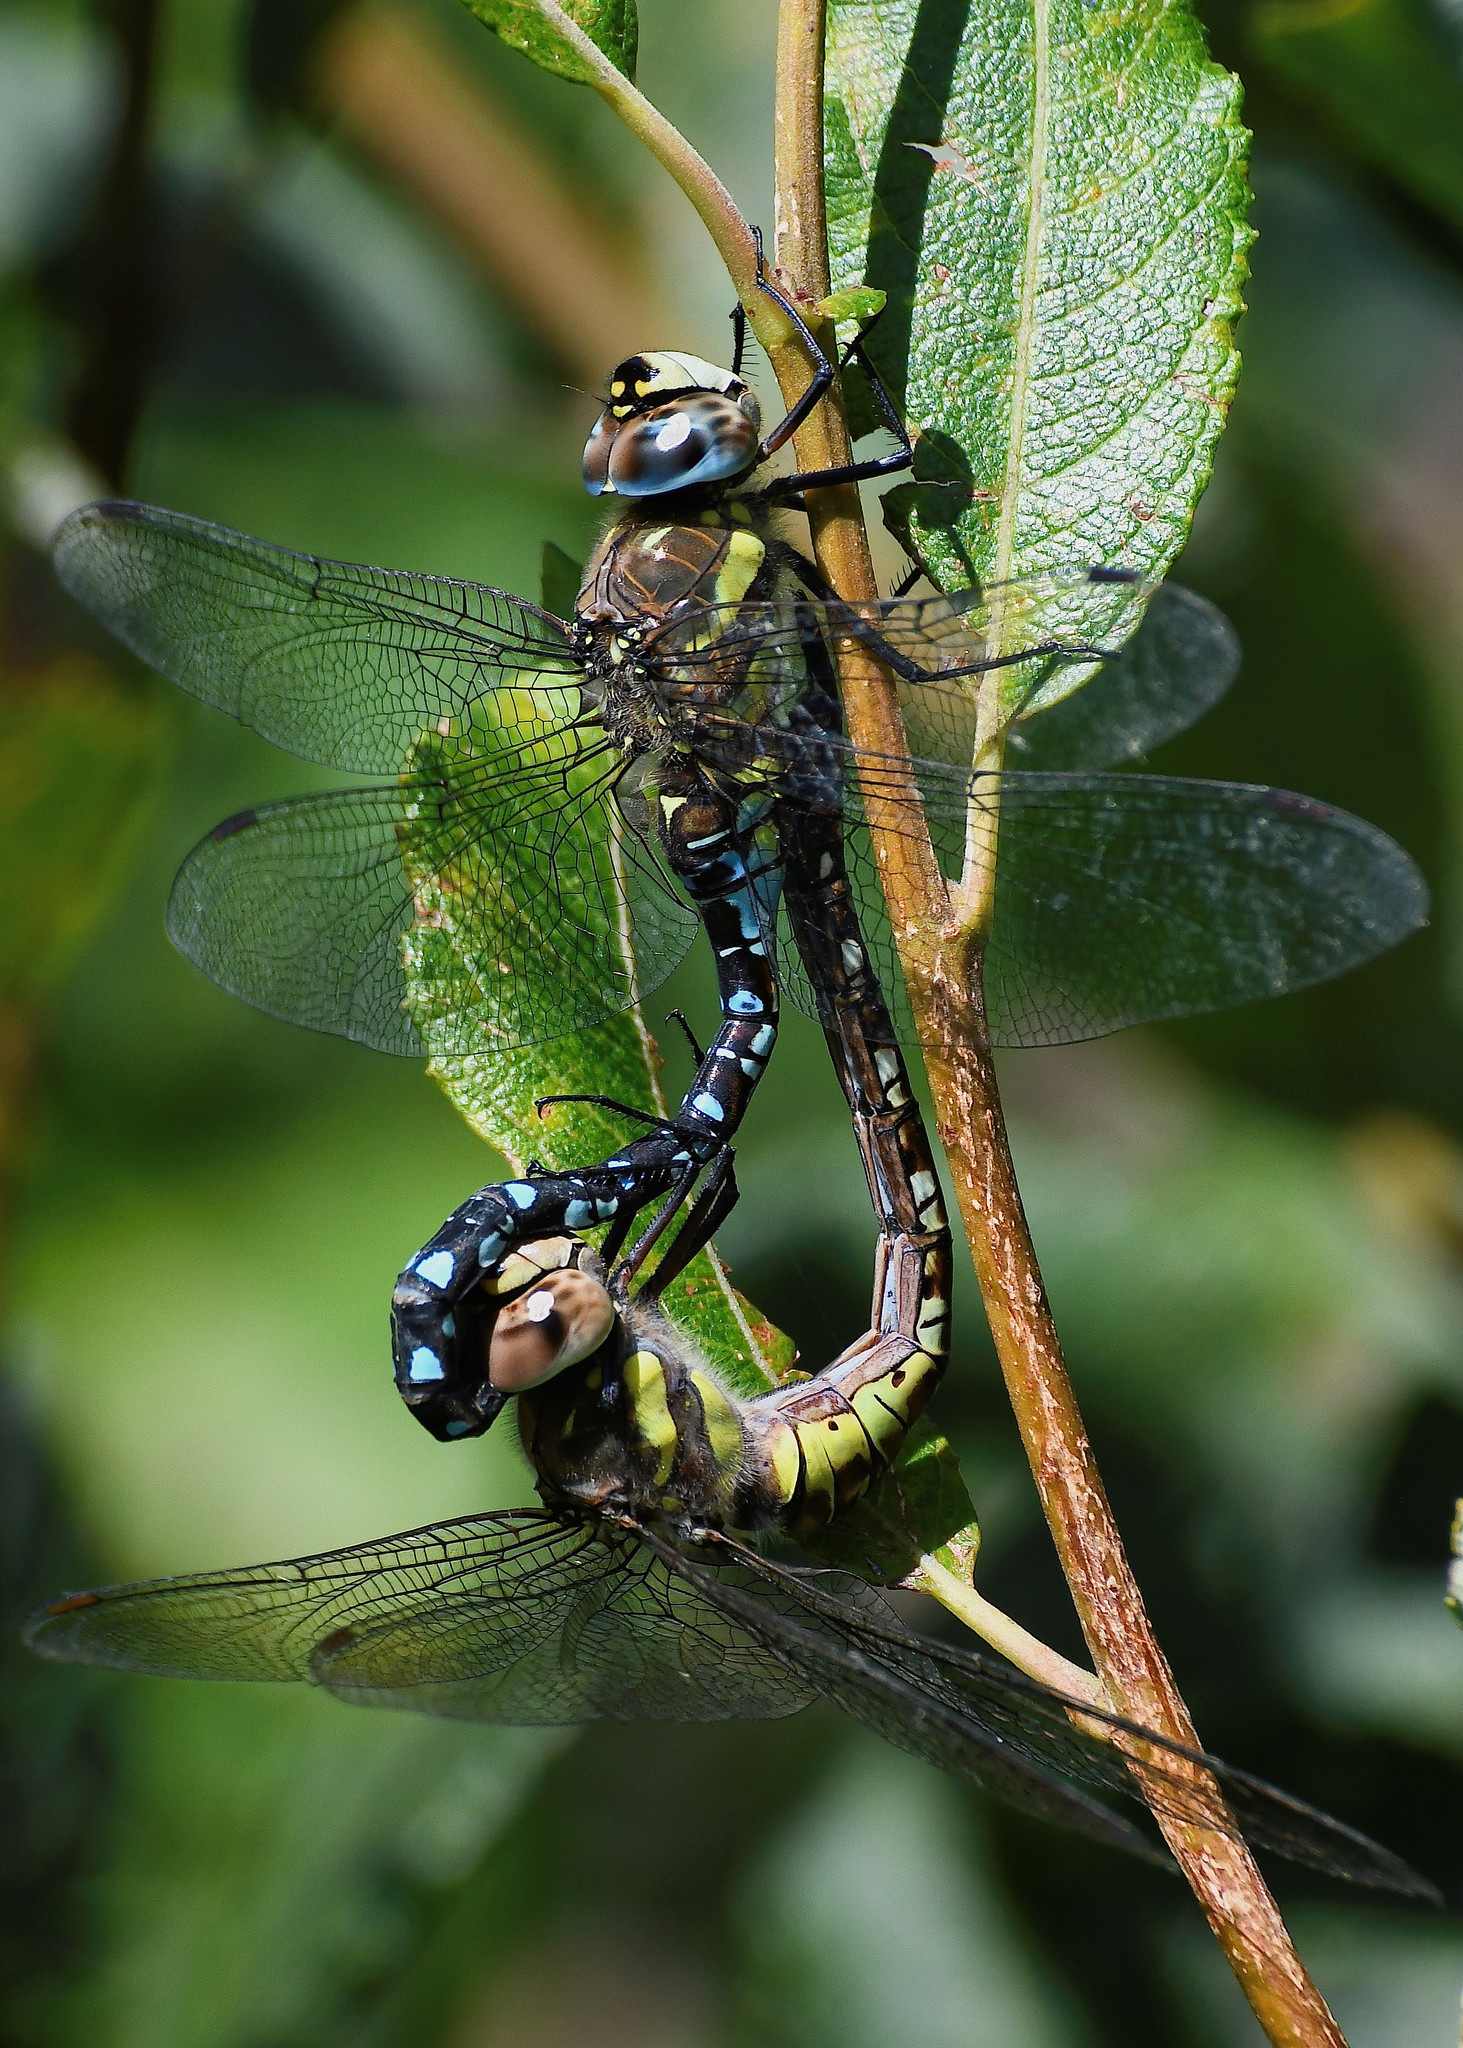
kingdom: Animalia
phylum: Arthropoda
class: Insecta
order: Odonata
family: Aeshnidae
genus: Aeshna
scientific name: Aeshna mixta
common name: Migrant hawker
